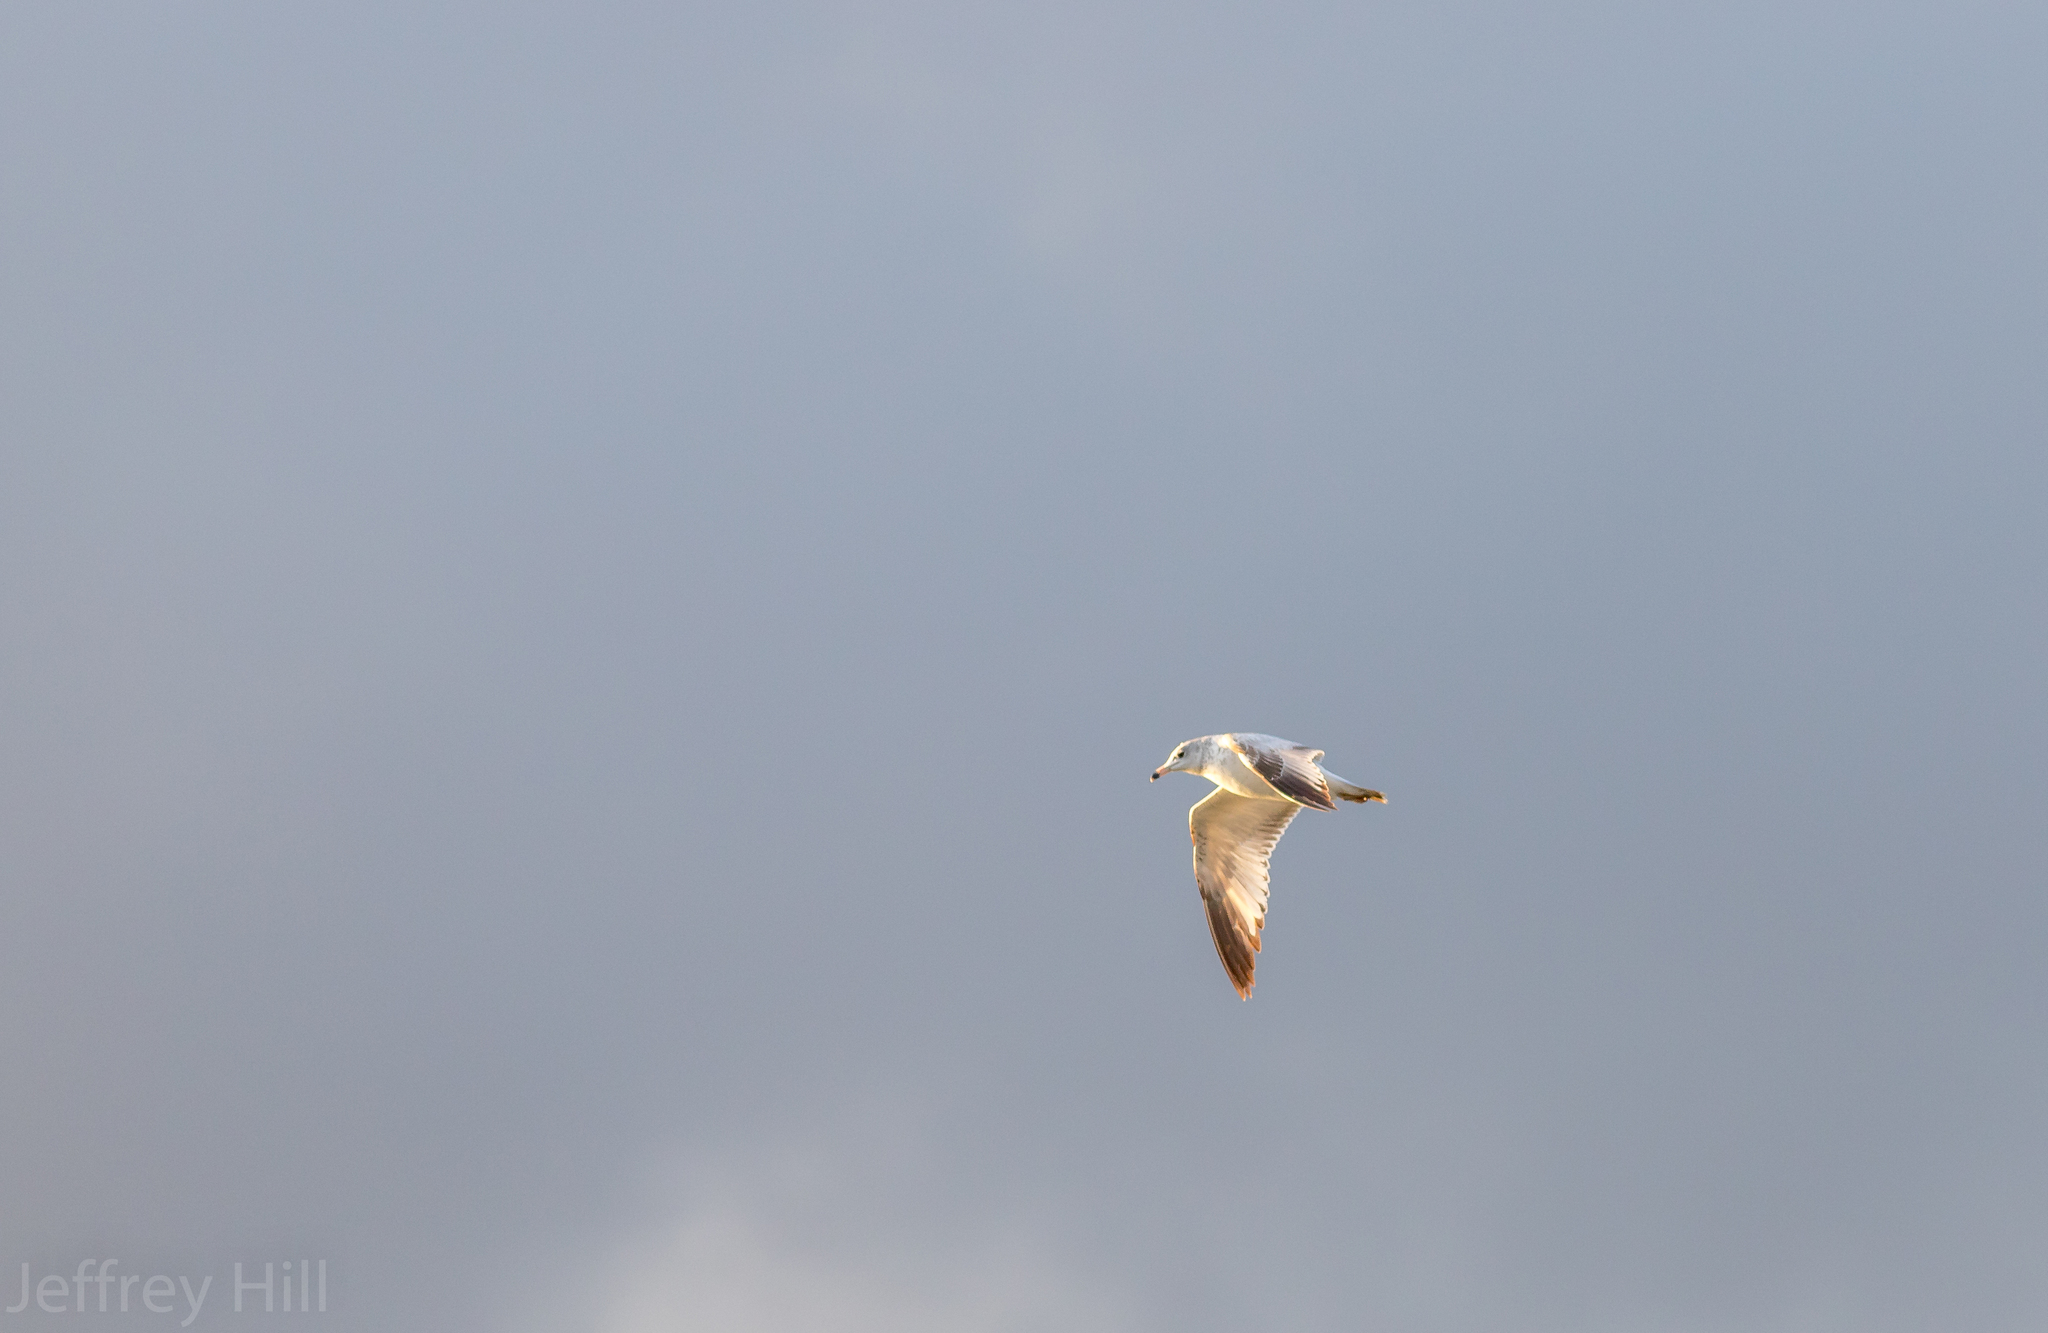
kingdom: Animalia
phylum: Chordata
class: Aves
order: Charadriiformes
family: Laridae
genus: Larus
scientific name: Larus delawarensis
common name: Ring-billed gull
